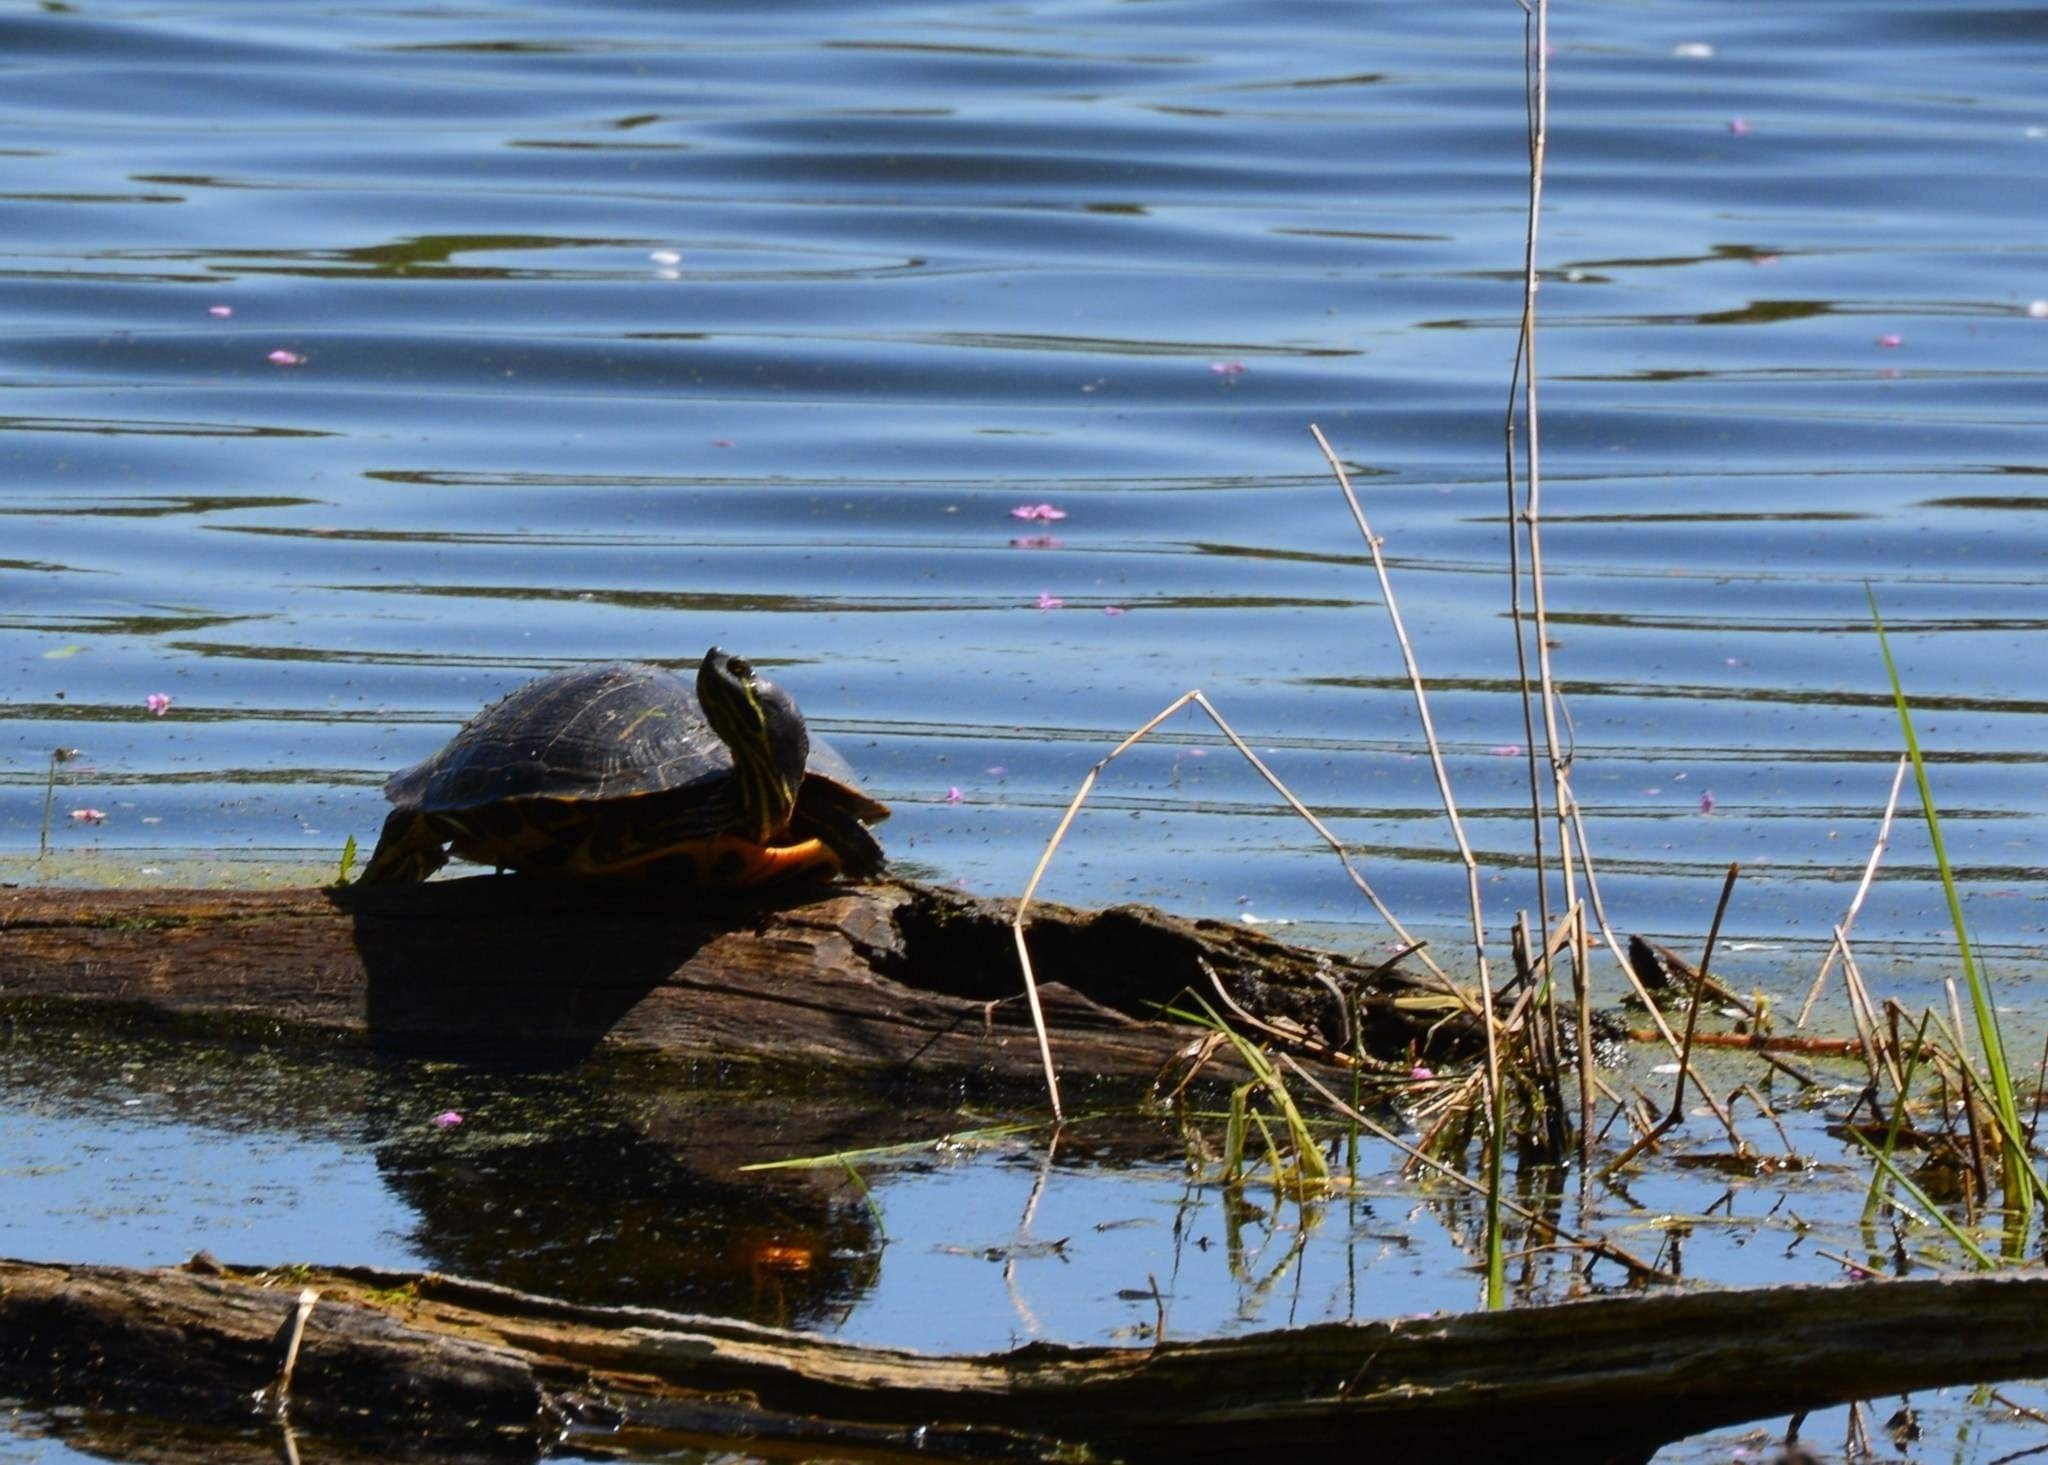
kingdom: Animalia
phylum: Chordata
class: Testudines
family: Emydidae
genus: Trachemys
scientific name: Trachemys scripta
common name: Slider
